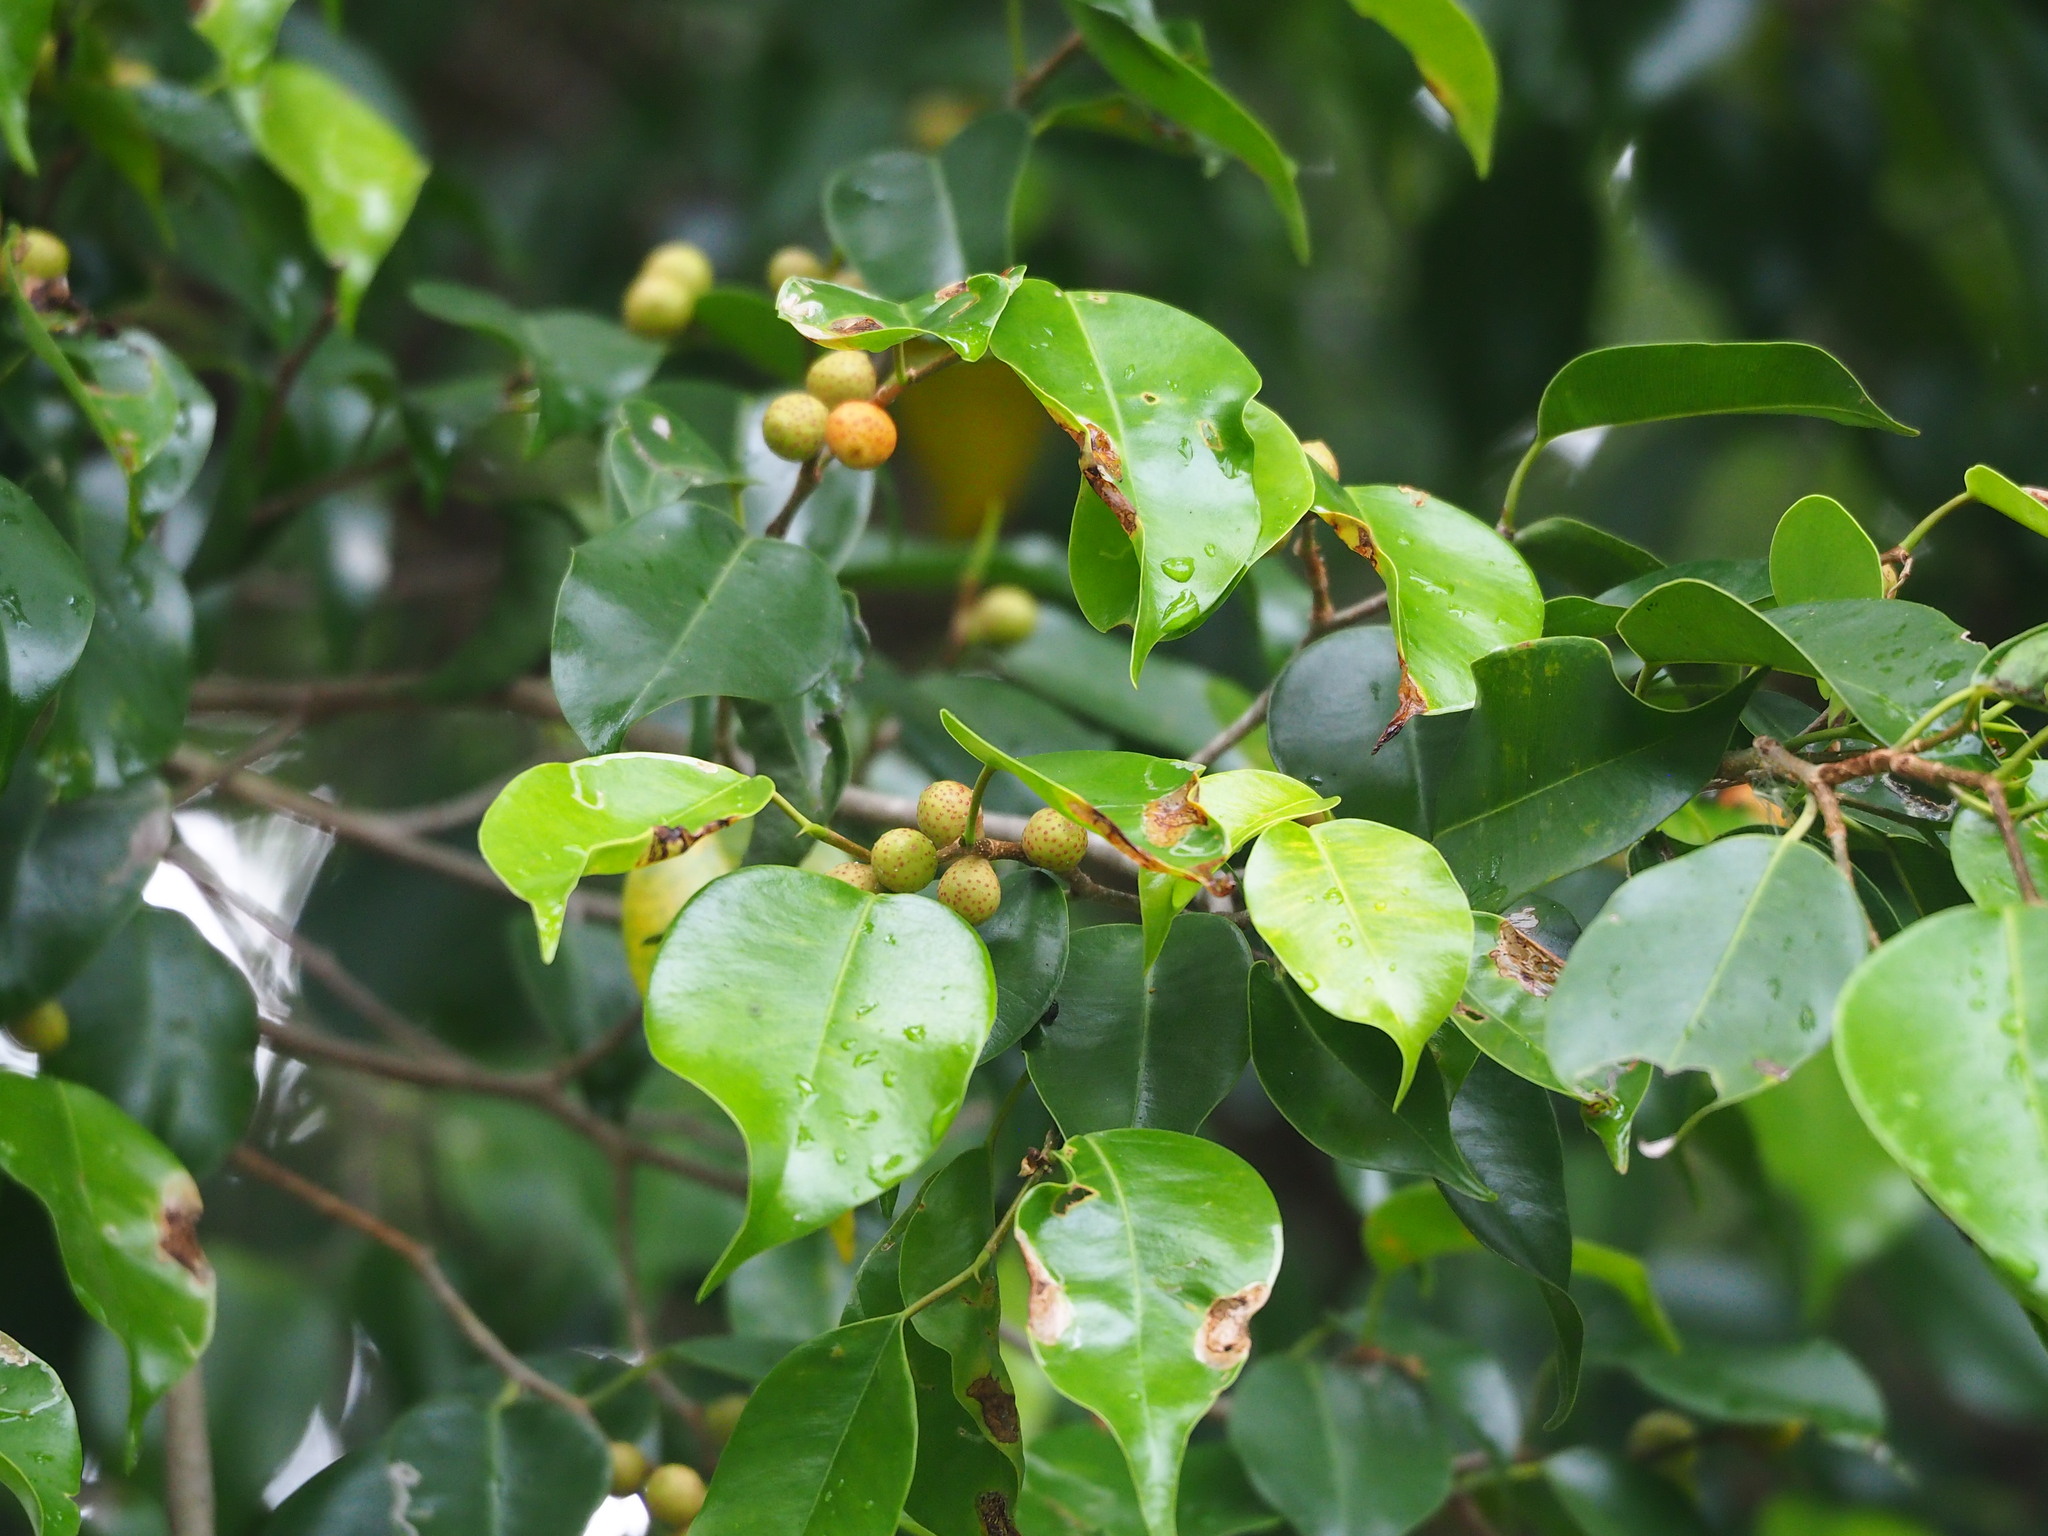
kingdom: Plantae
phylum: Tracheophyta
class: Magnoliopsida
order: Rosales
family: Moraceae
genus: Ficus
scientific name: Ficus benjamina
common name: Weeping fig
